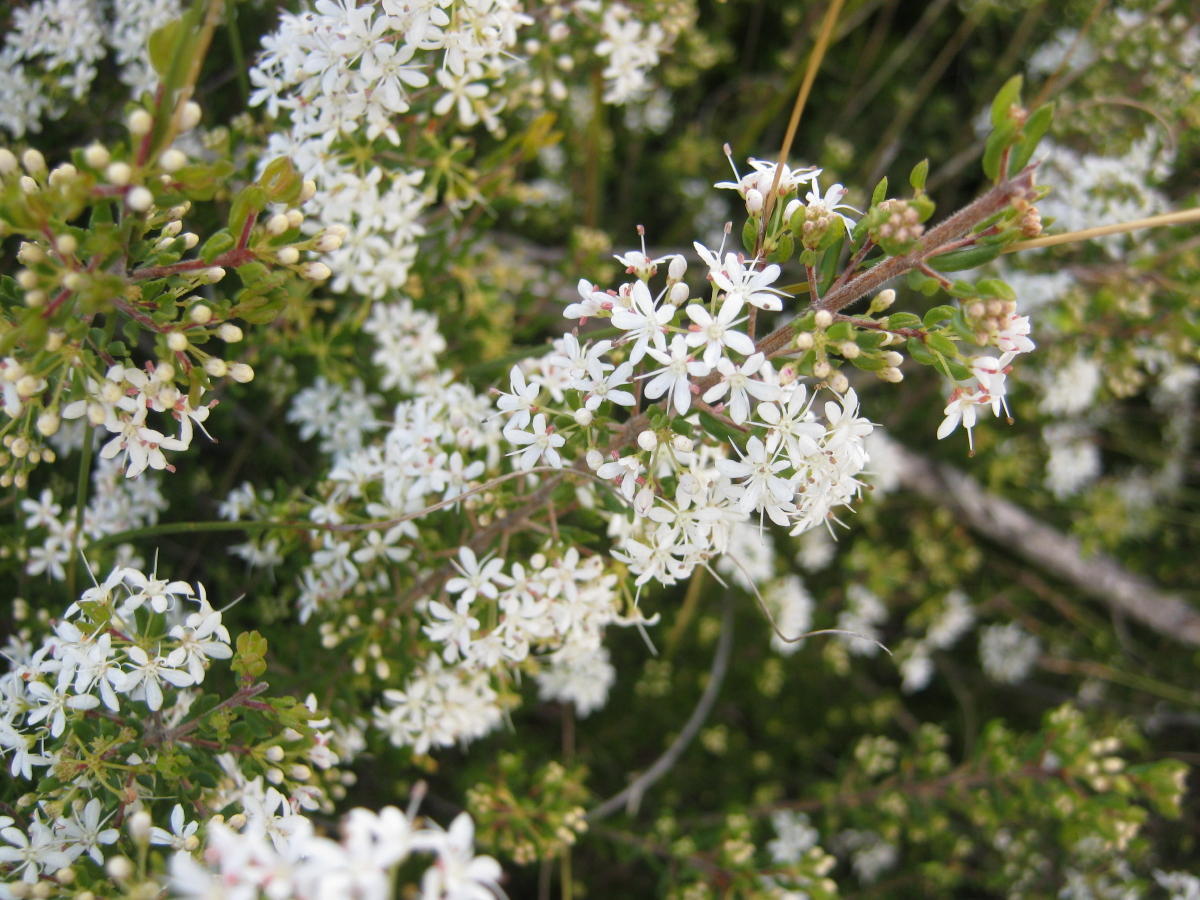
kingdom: Plantae
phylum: Tracheophyta
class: Magnoliopsida
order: Sapindales
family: Rutaceae
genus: Agathosma
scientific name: Agathosma mundtii
